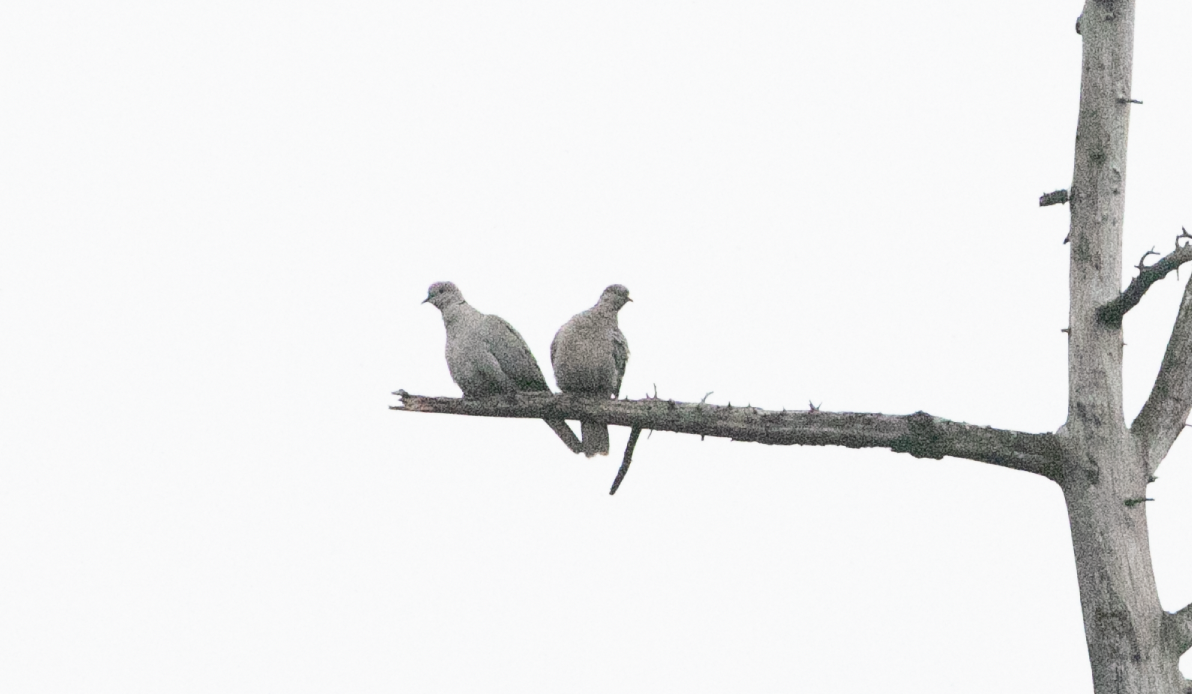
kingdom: Animalia
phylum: Chordata
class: Aves
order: Columbiformes
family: Columbidae
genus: Streptopelia
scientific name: Streptopelia decaocto
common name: Eurasian collared dove
